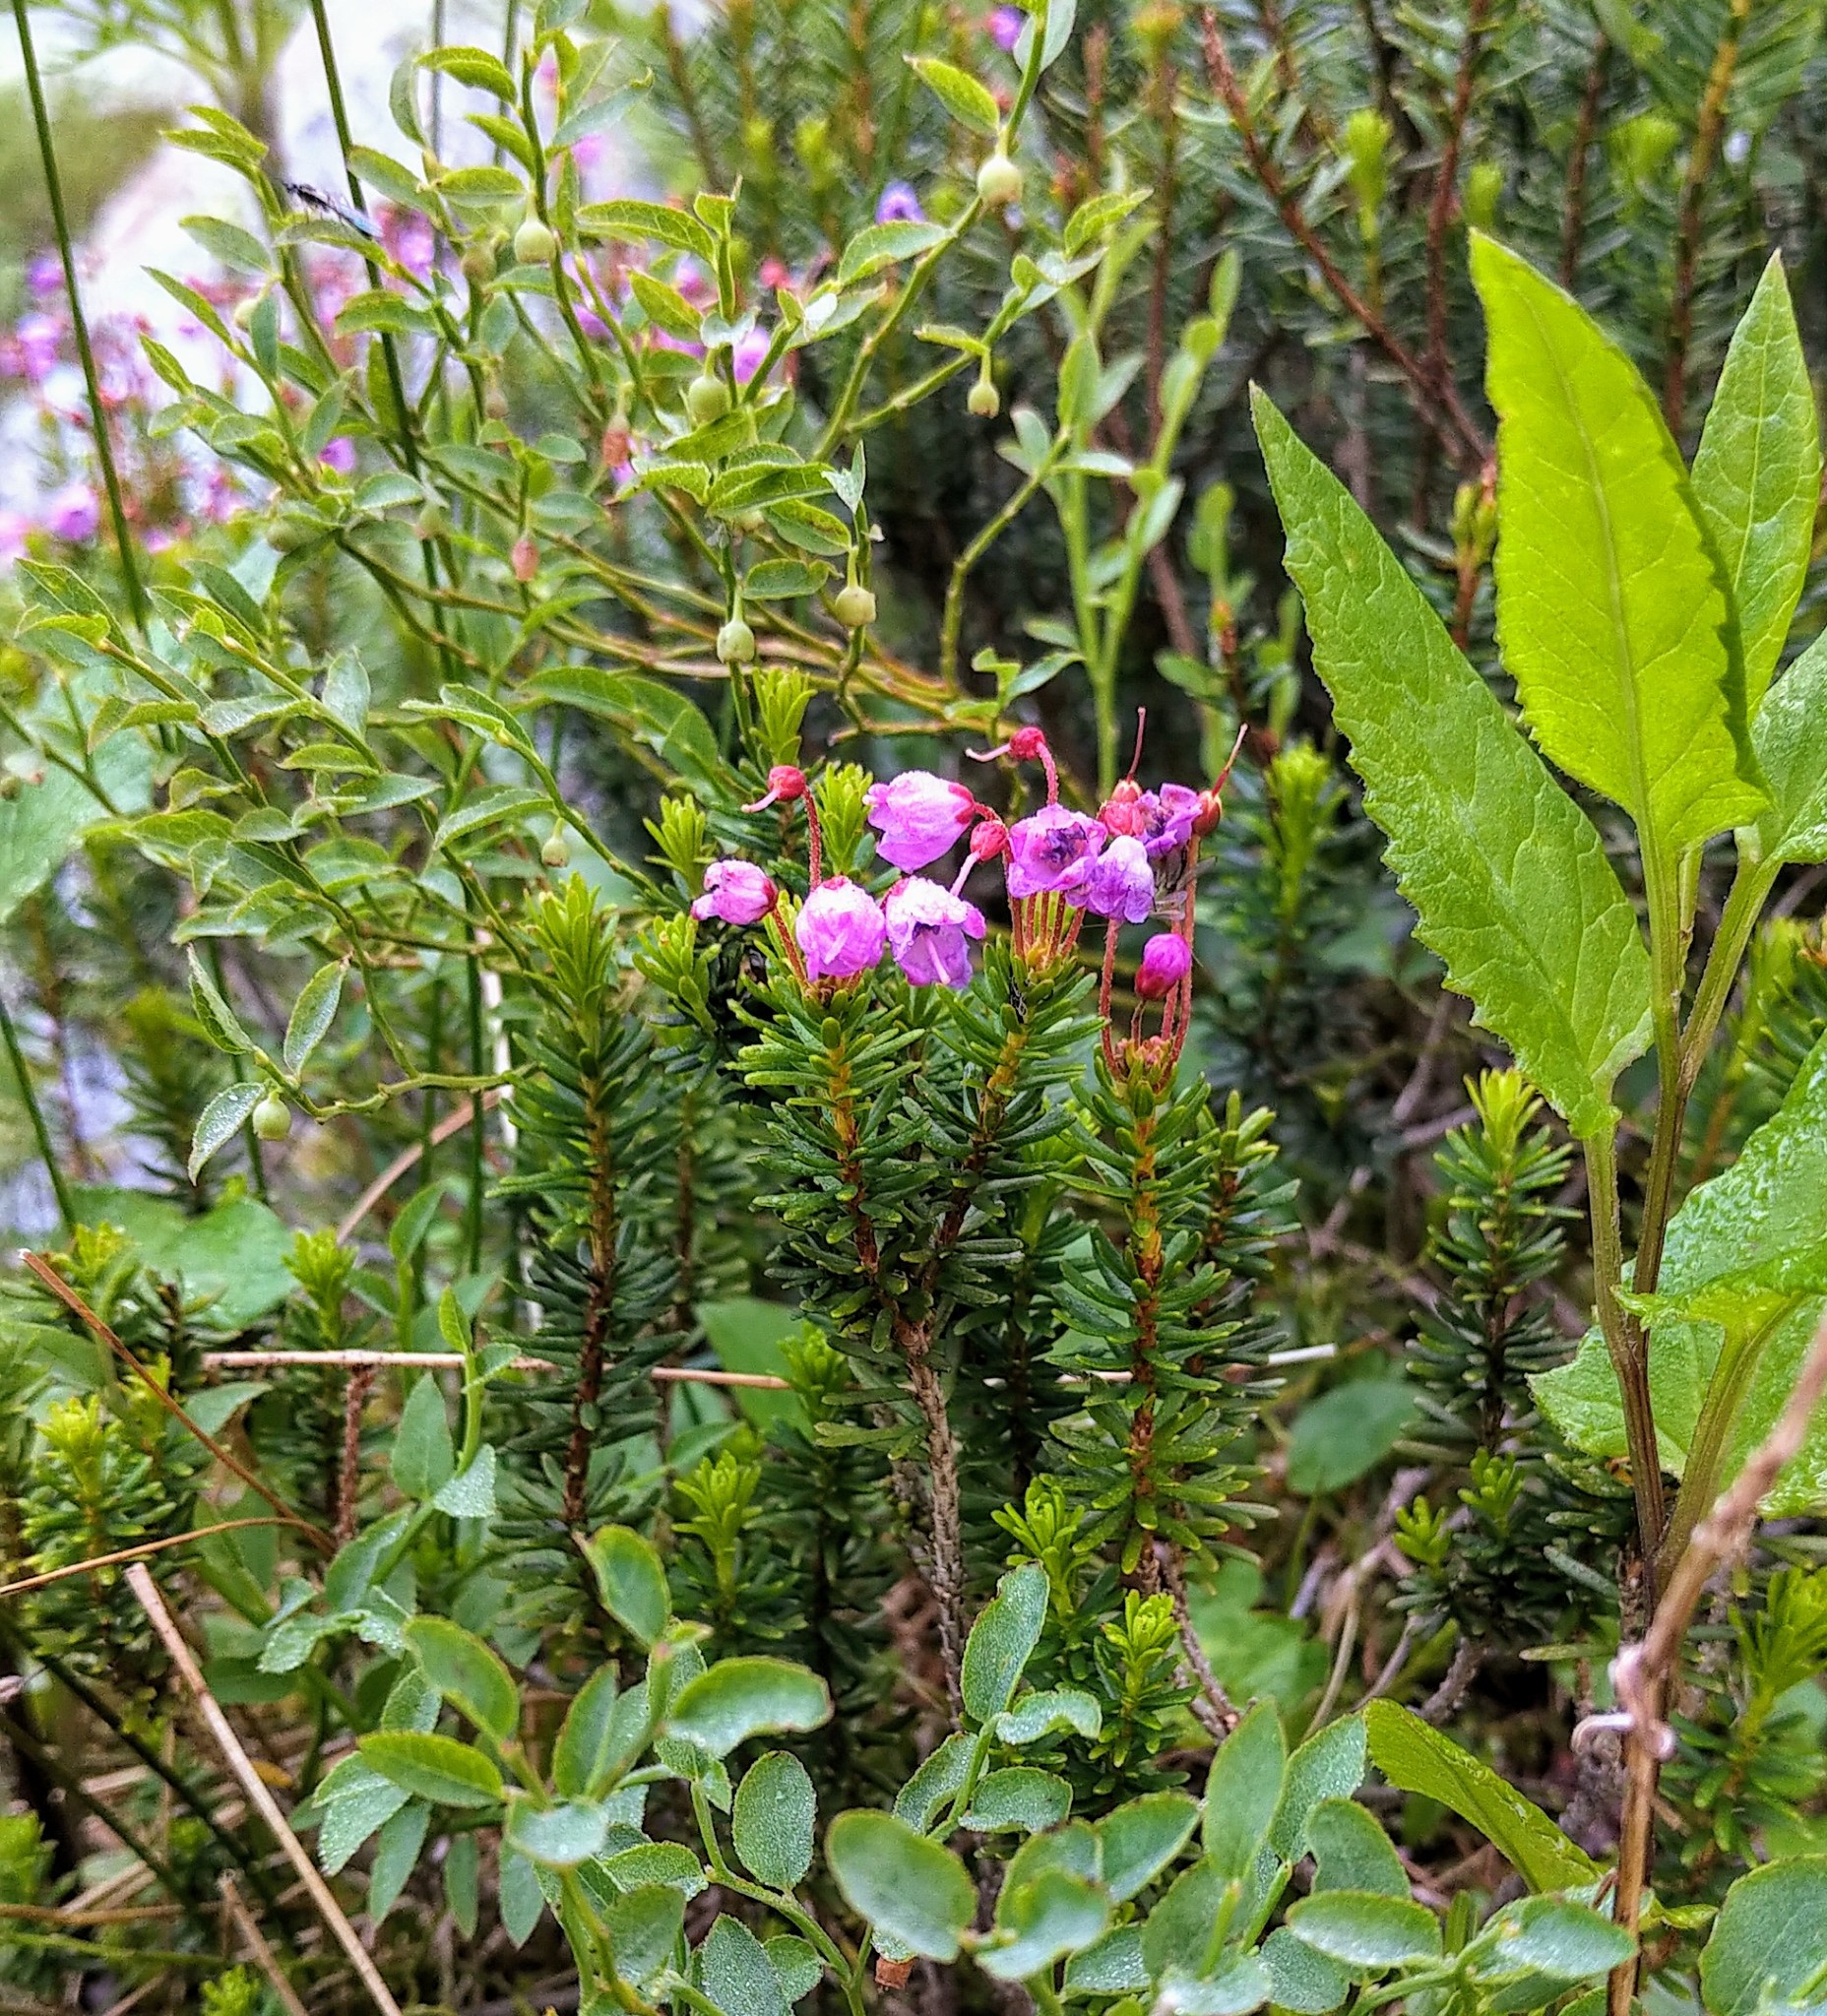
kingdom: Plantae
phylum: Tracheophyta
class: Magnoliopsida
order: Ericales
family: Ericaceae
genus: Phyllodoce
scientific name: Phyllodoce empetriformis
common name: Pink mountain heather
